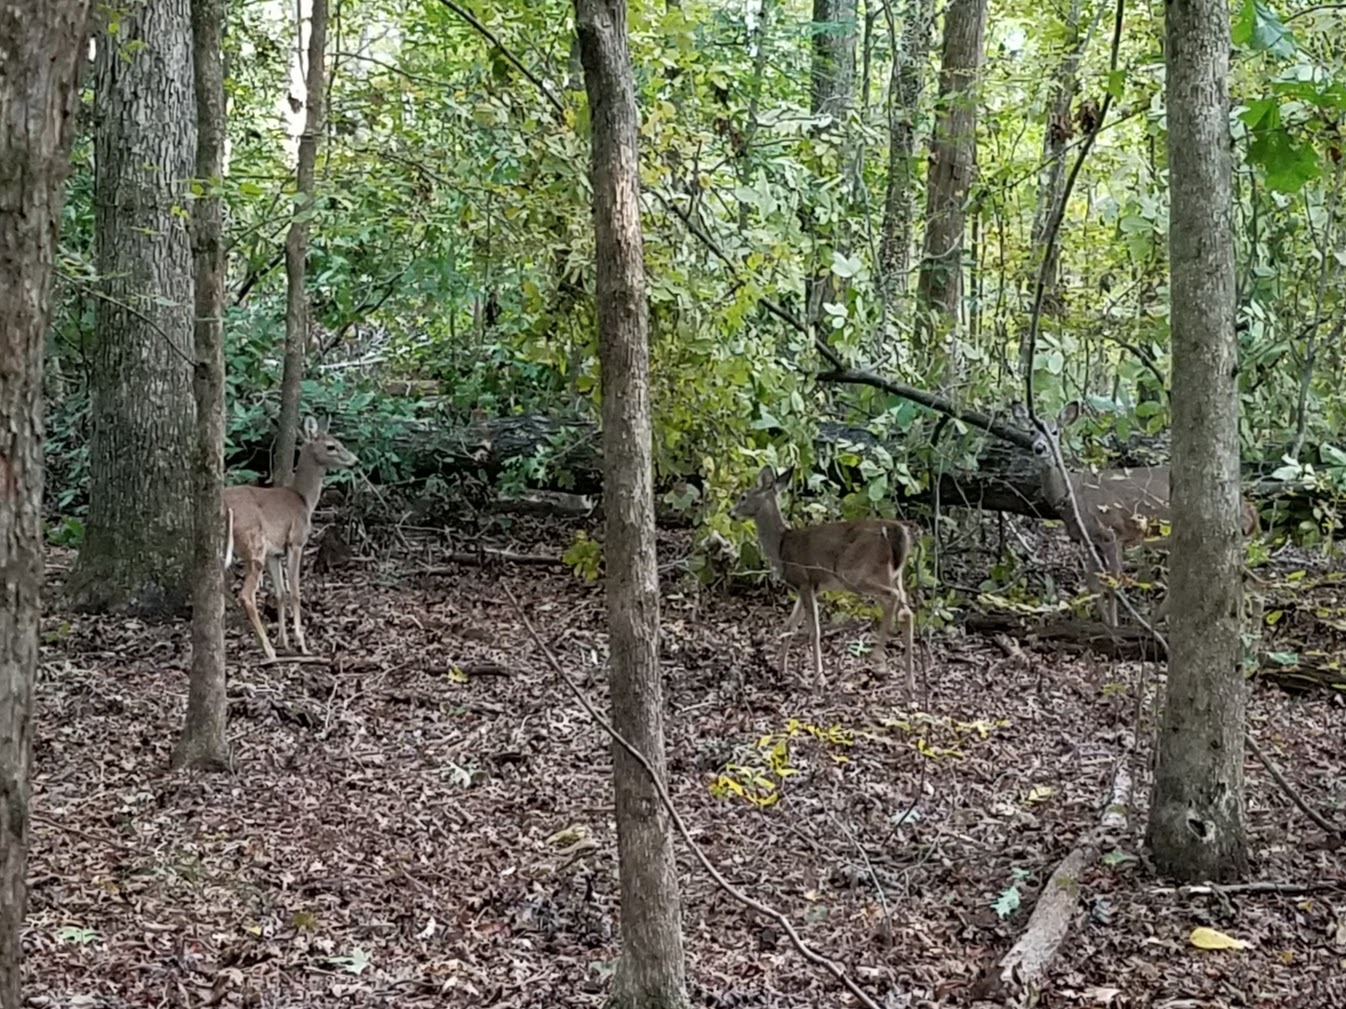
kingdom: Animalia
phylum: Chordata
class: Mammalia
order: Artiodactyla
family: Cervidae
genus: Odocoileus
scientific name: Odocoileus virginianus
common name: White-tailed deer
